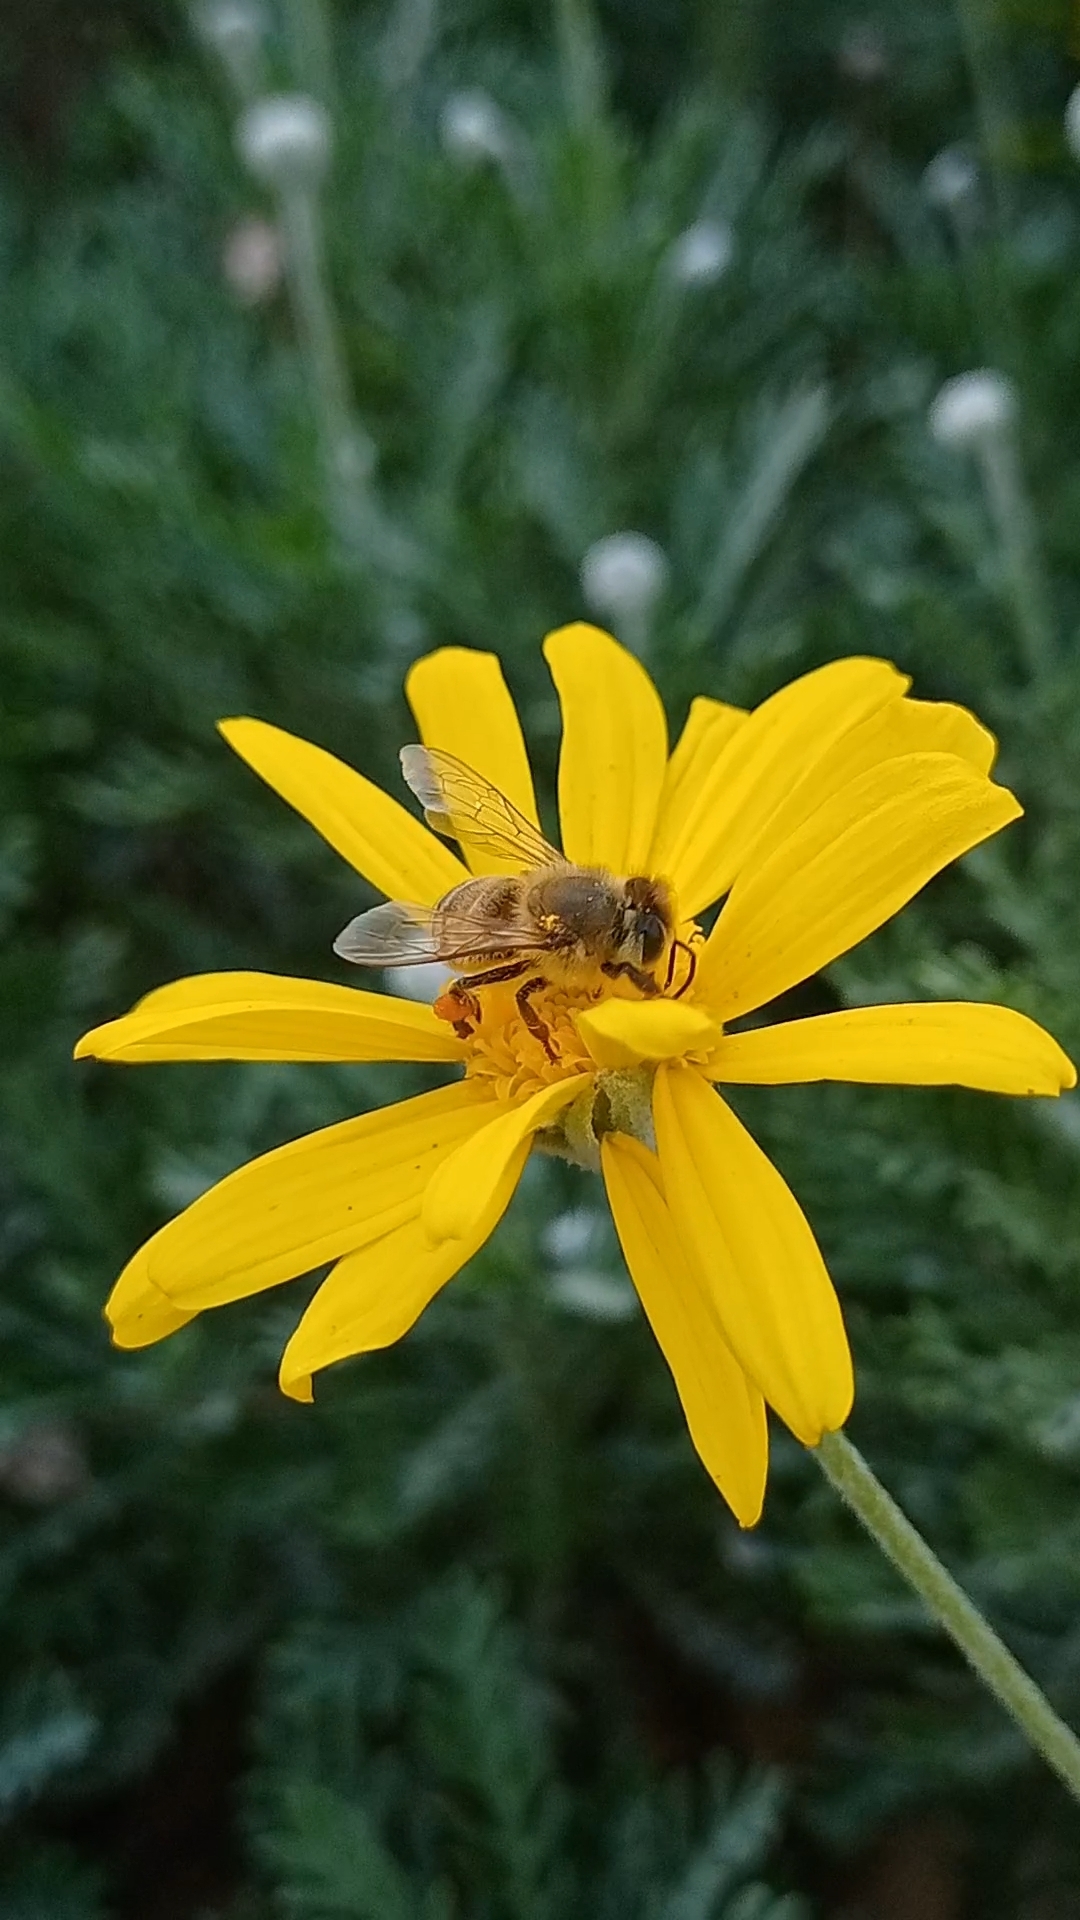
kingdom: Animalia
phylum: Arthropoda
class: Insecta
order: Hymenoptera
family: Apidae
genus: Apis
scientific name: Apis mellifera
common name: Honey bee
